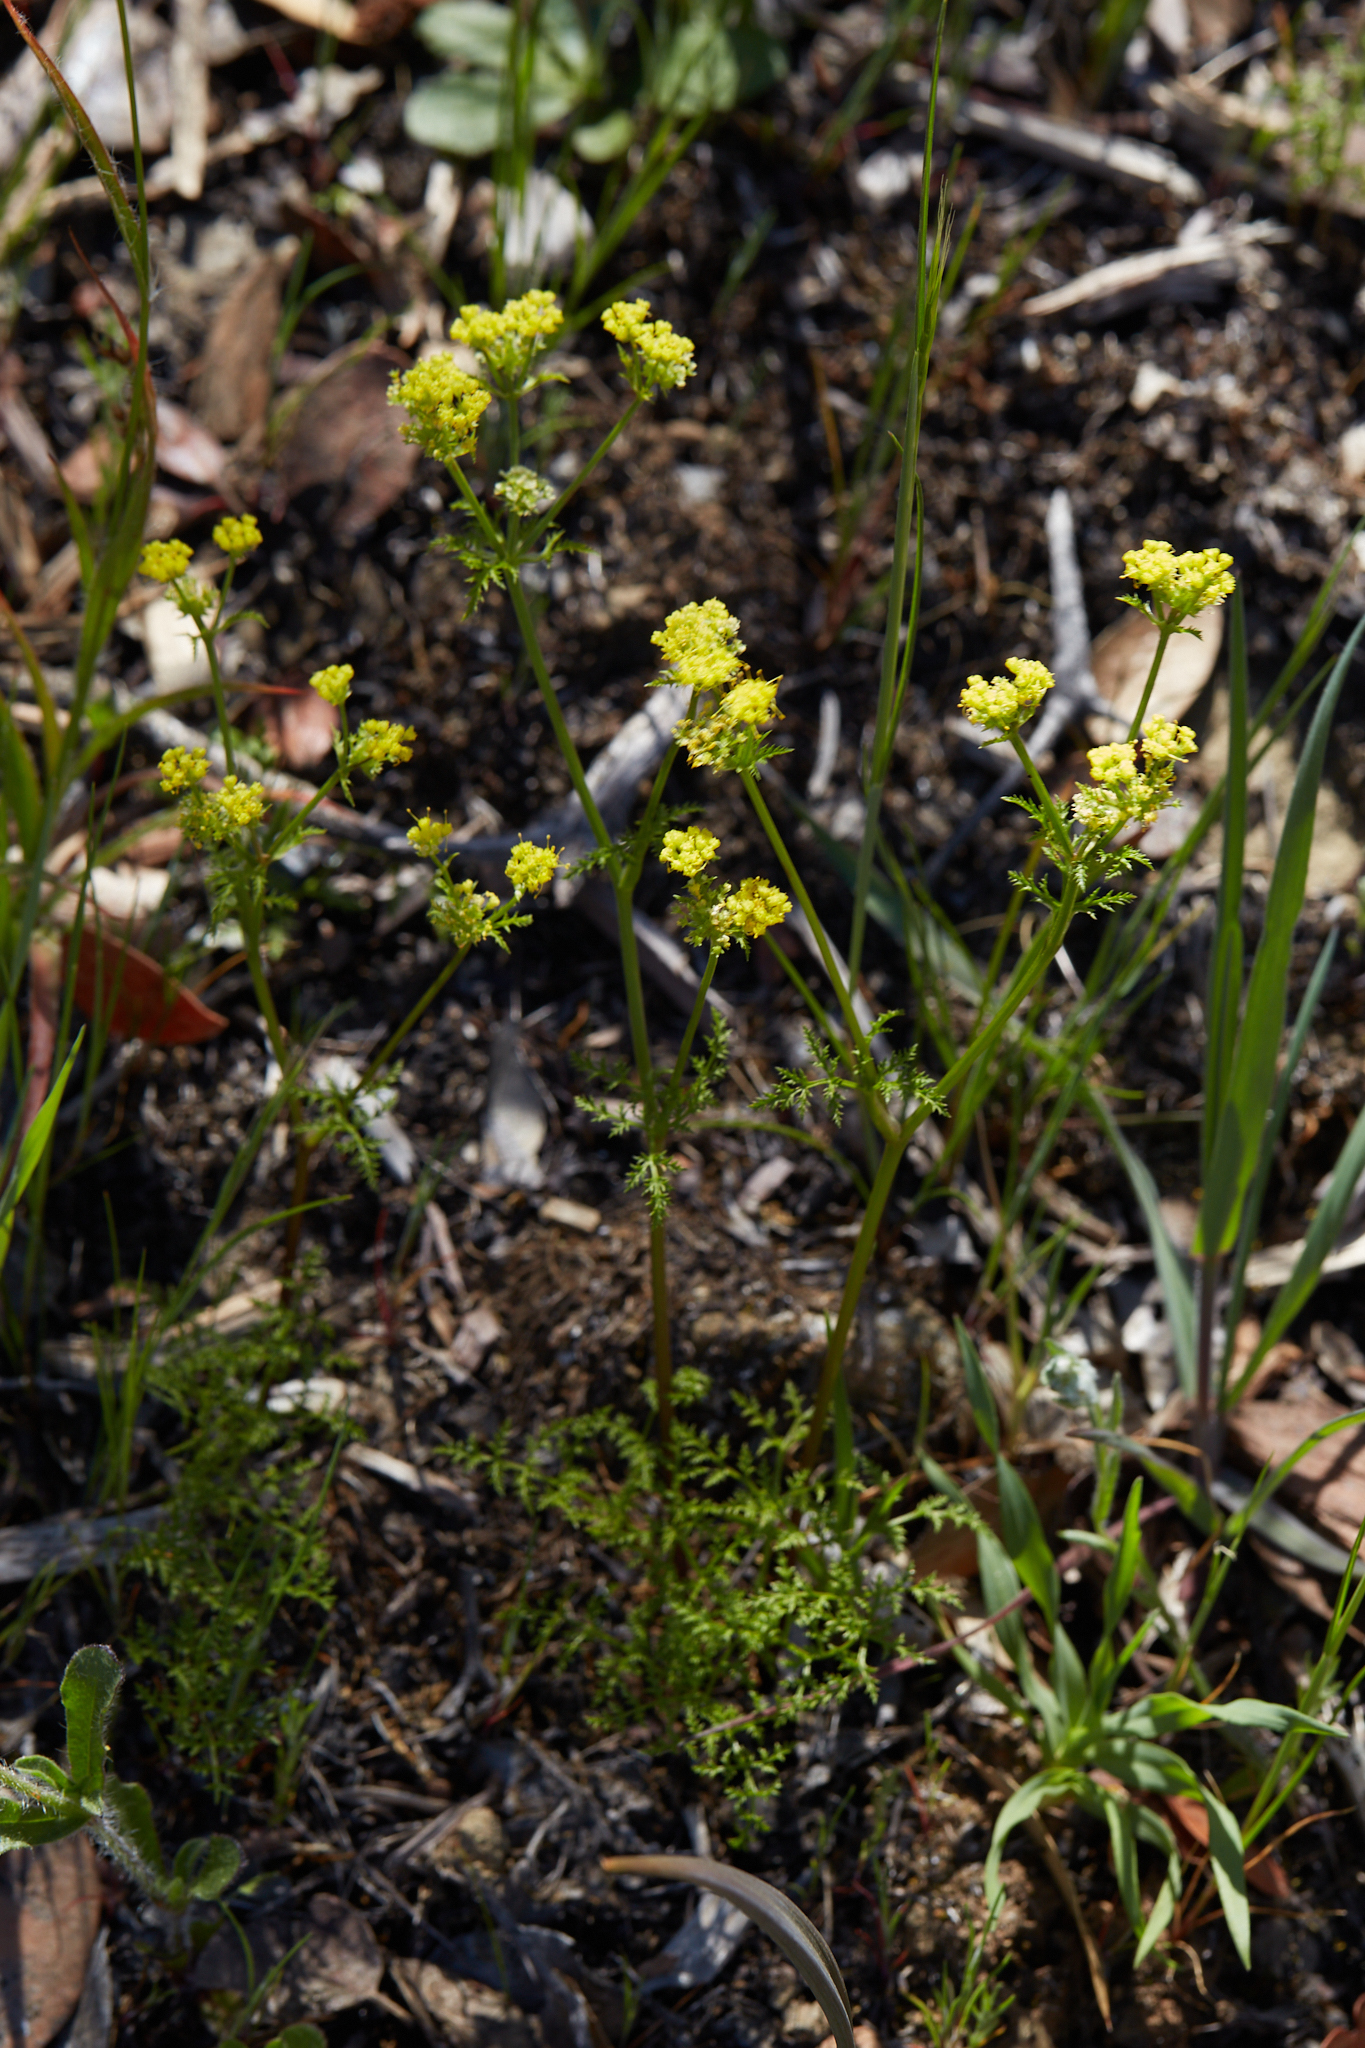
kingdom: Plantae
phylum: Tracheophyta
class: Magnoliopsida
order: Apiales
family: Apiaceae
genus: Sanicula
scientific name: Sanicula tuberosa
